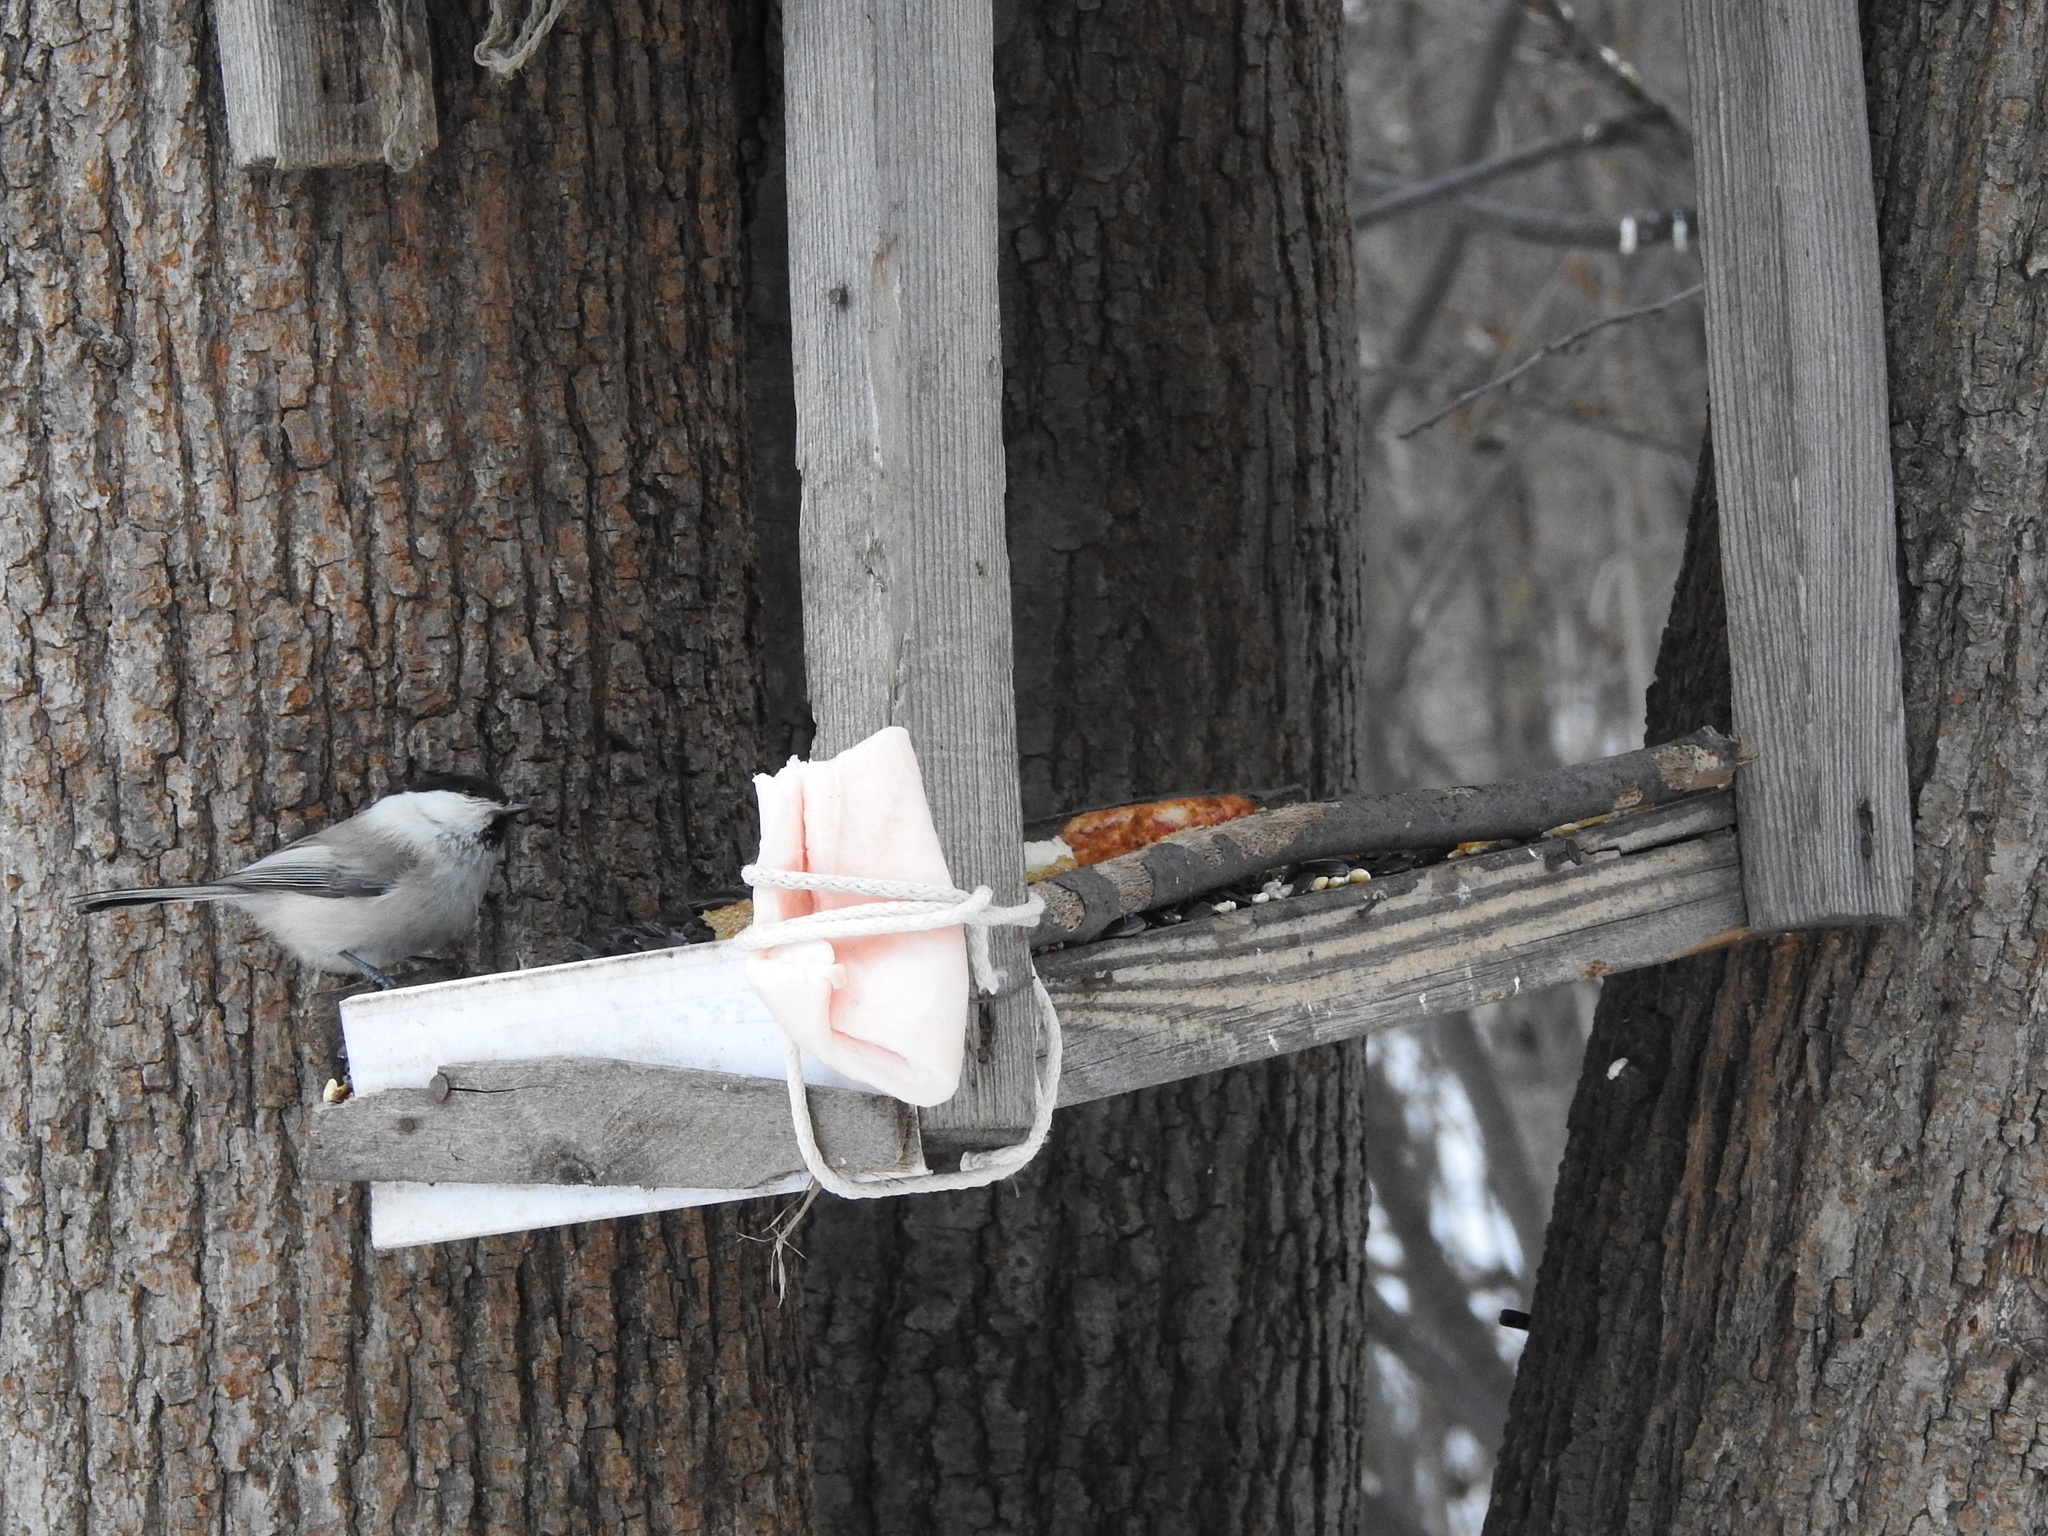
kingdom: Animalia
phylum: Chordata
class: Aves
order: Passeriformes
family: Paridae
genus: Poecile
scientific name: Poecile montanus
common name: Willow tit
